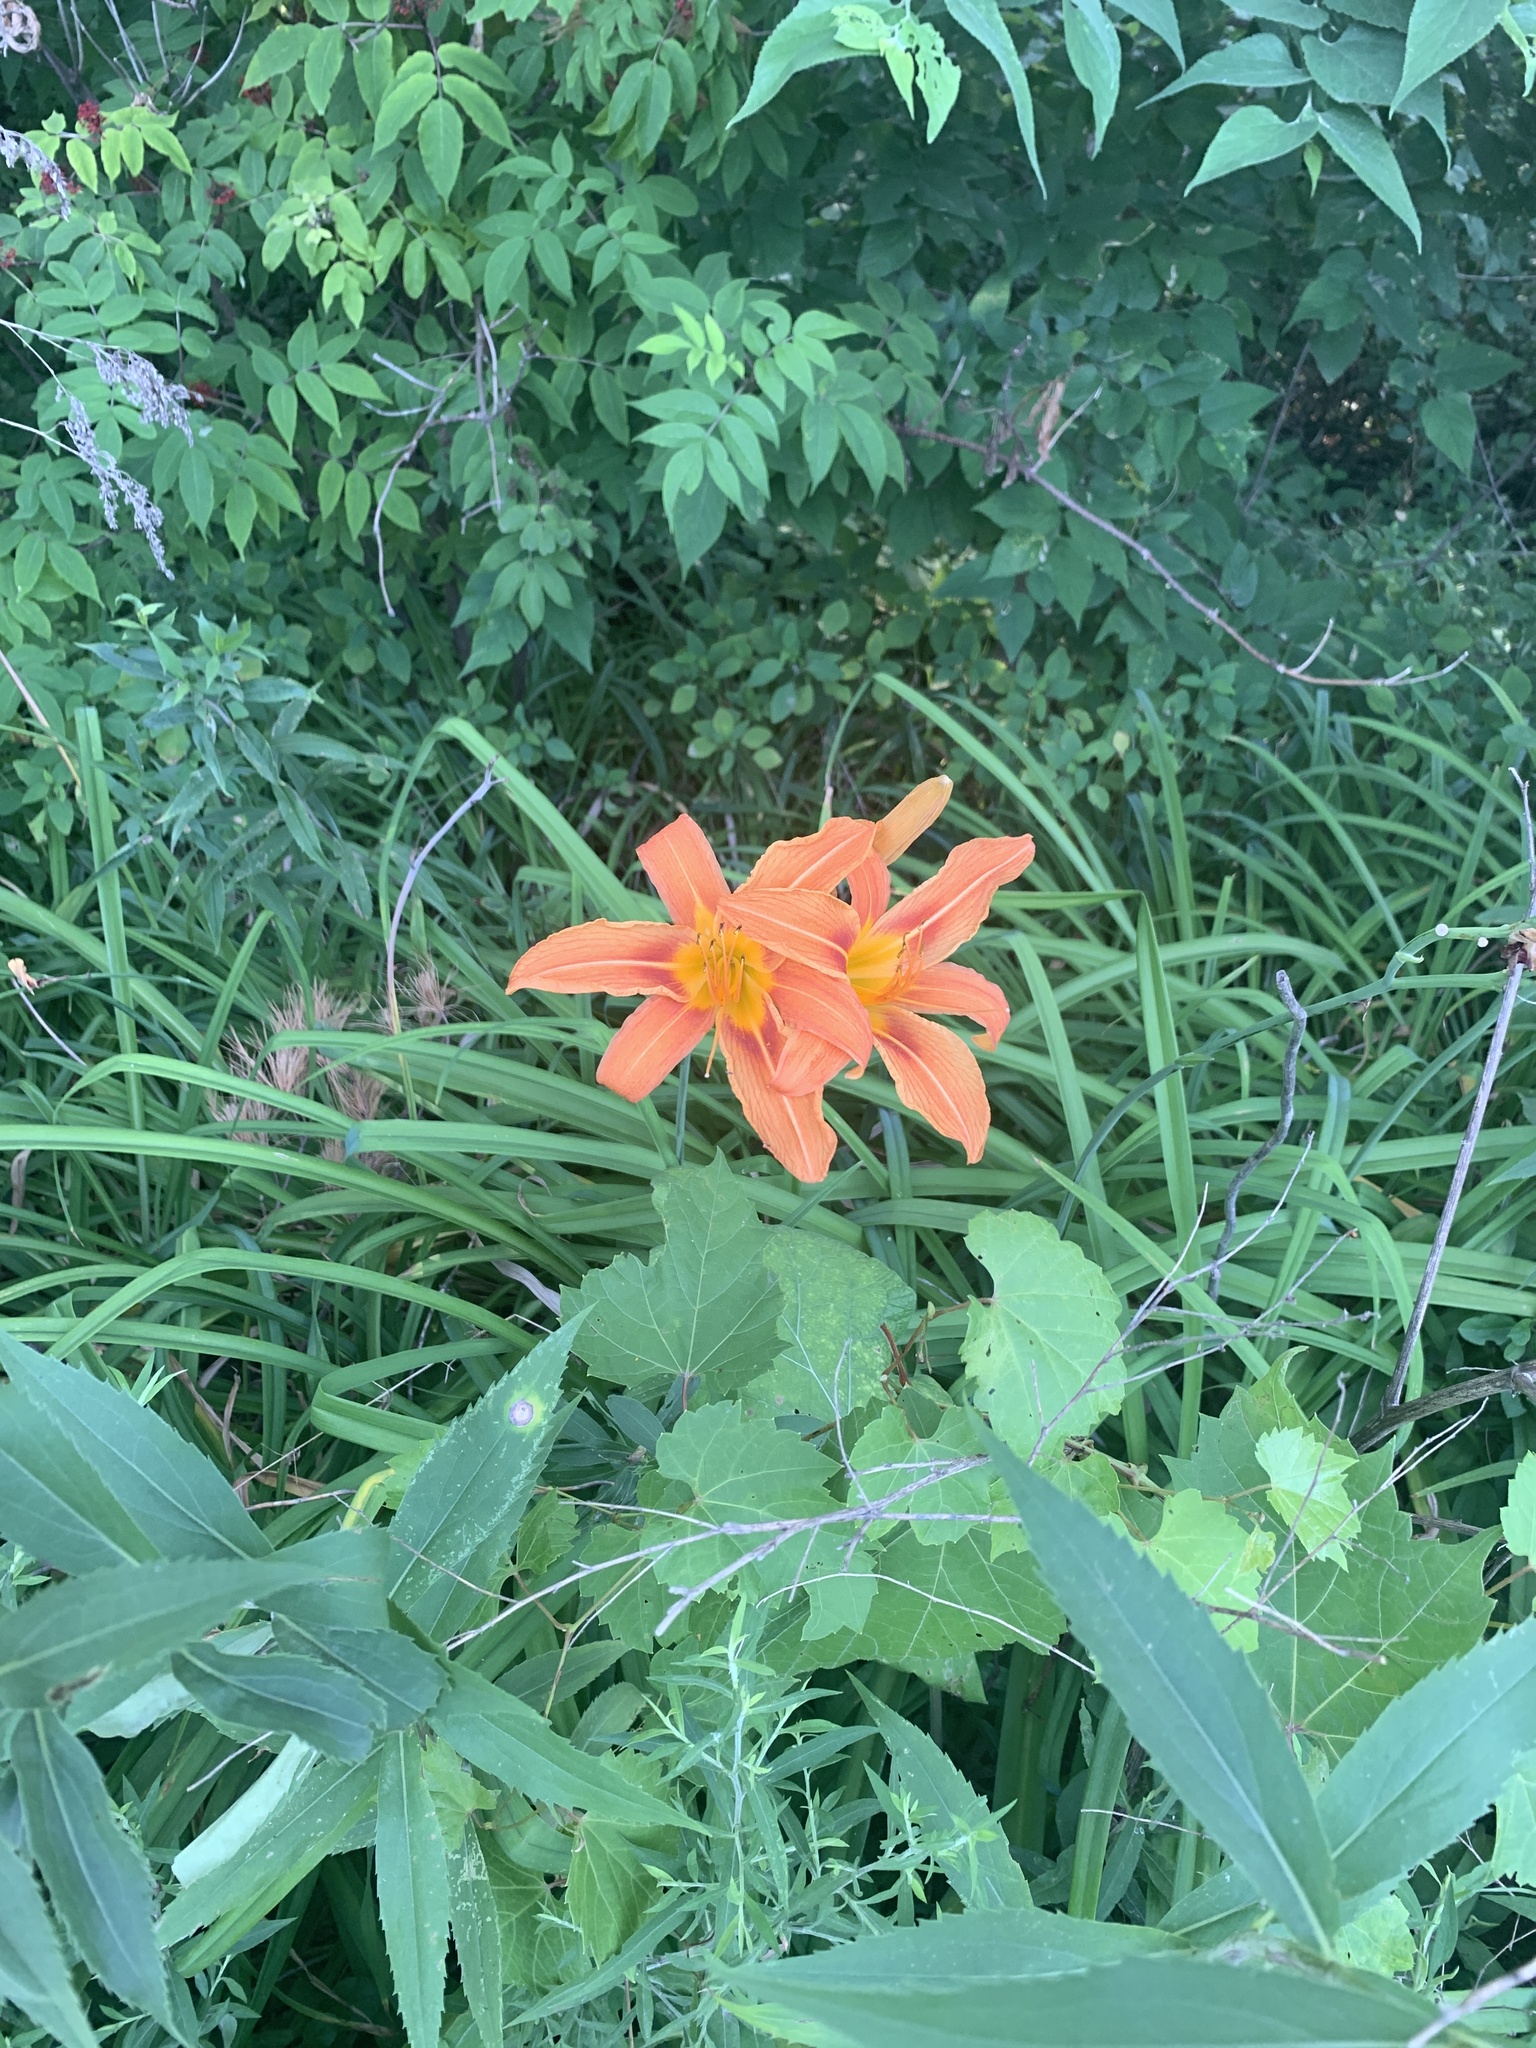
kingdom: Plantae
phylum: Tracheophyta
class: Liliopsida
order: Asparagales
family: Asphodelaceae
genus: Hemerocallis
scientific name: Hemerocallis fulva
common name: Orange day-lily
